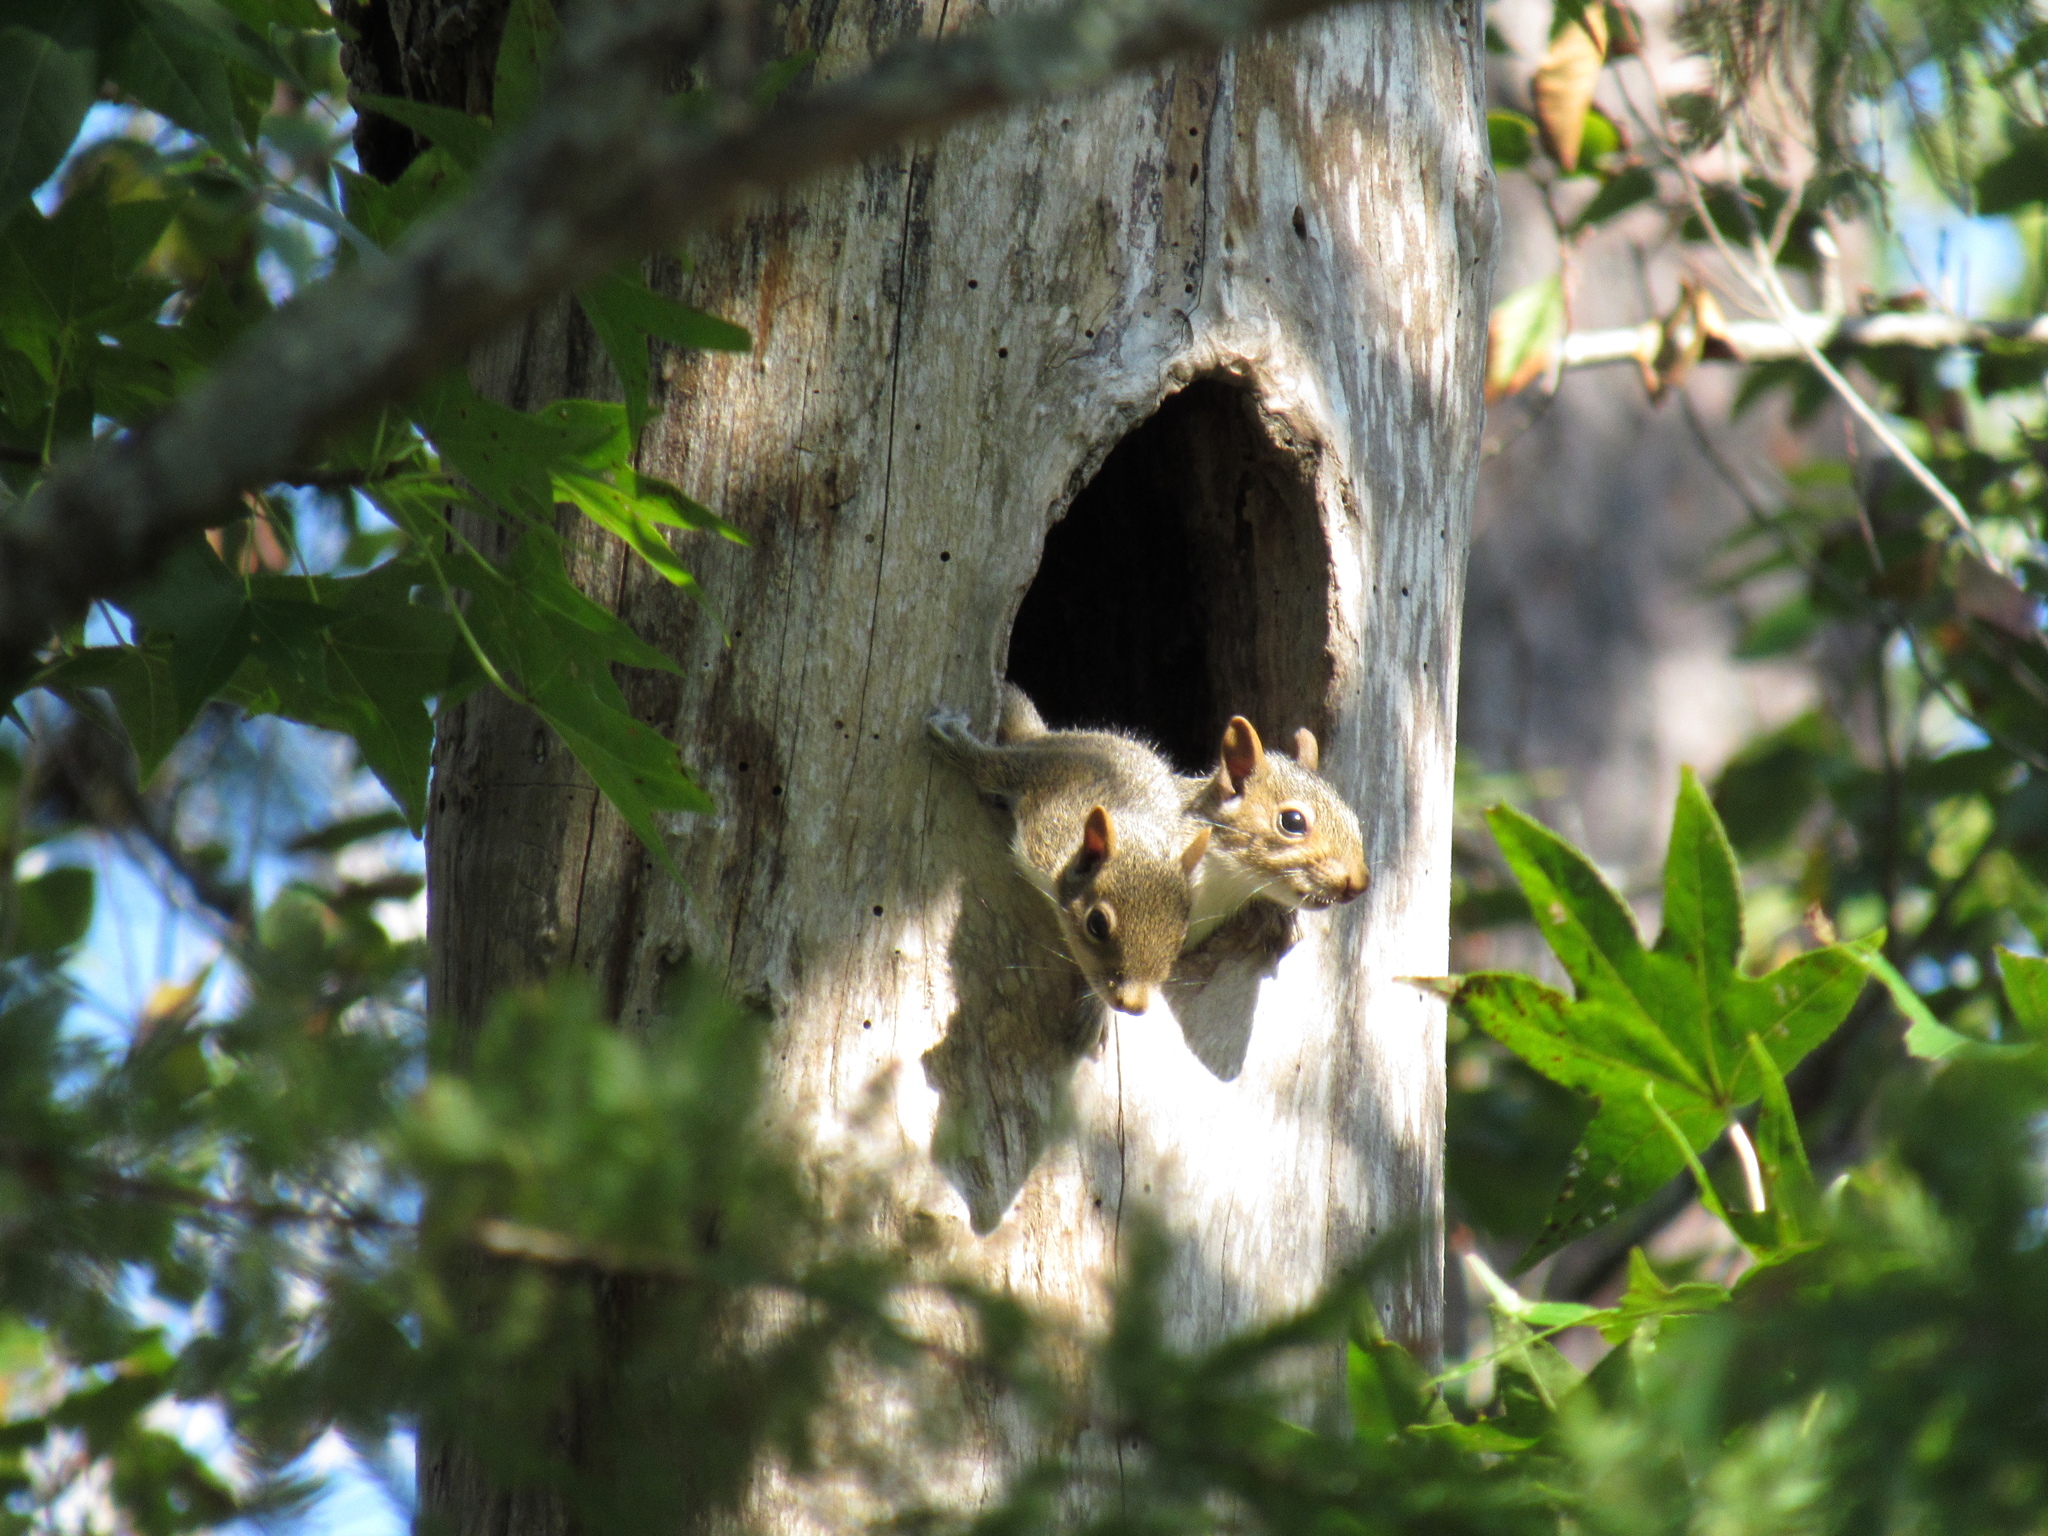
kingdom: Animalia
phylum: Chordata
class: Mammalia
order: Rodentia
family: Sciuridae
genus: Sciurus
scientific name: Sciurus carolinensis
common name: Eastern gray squirrel
